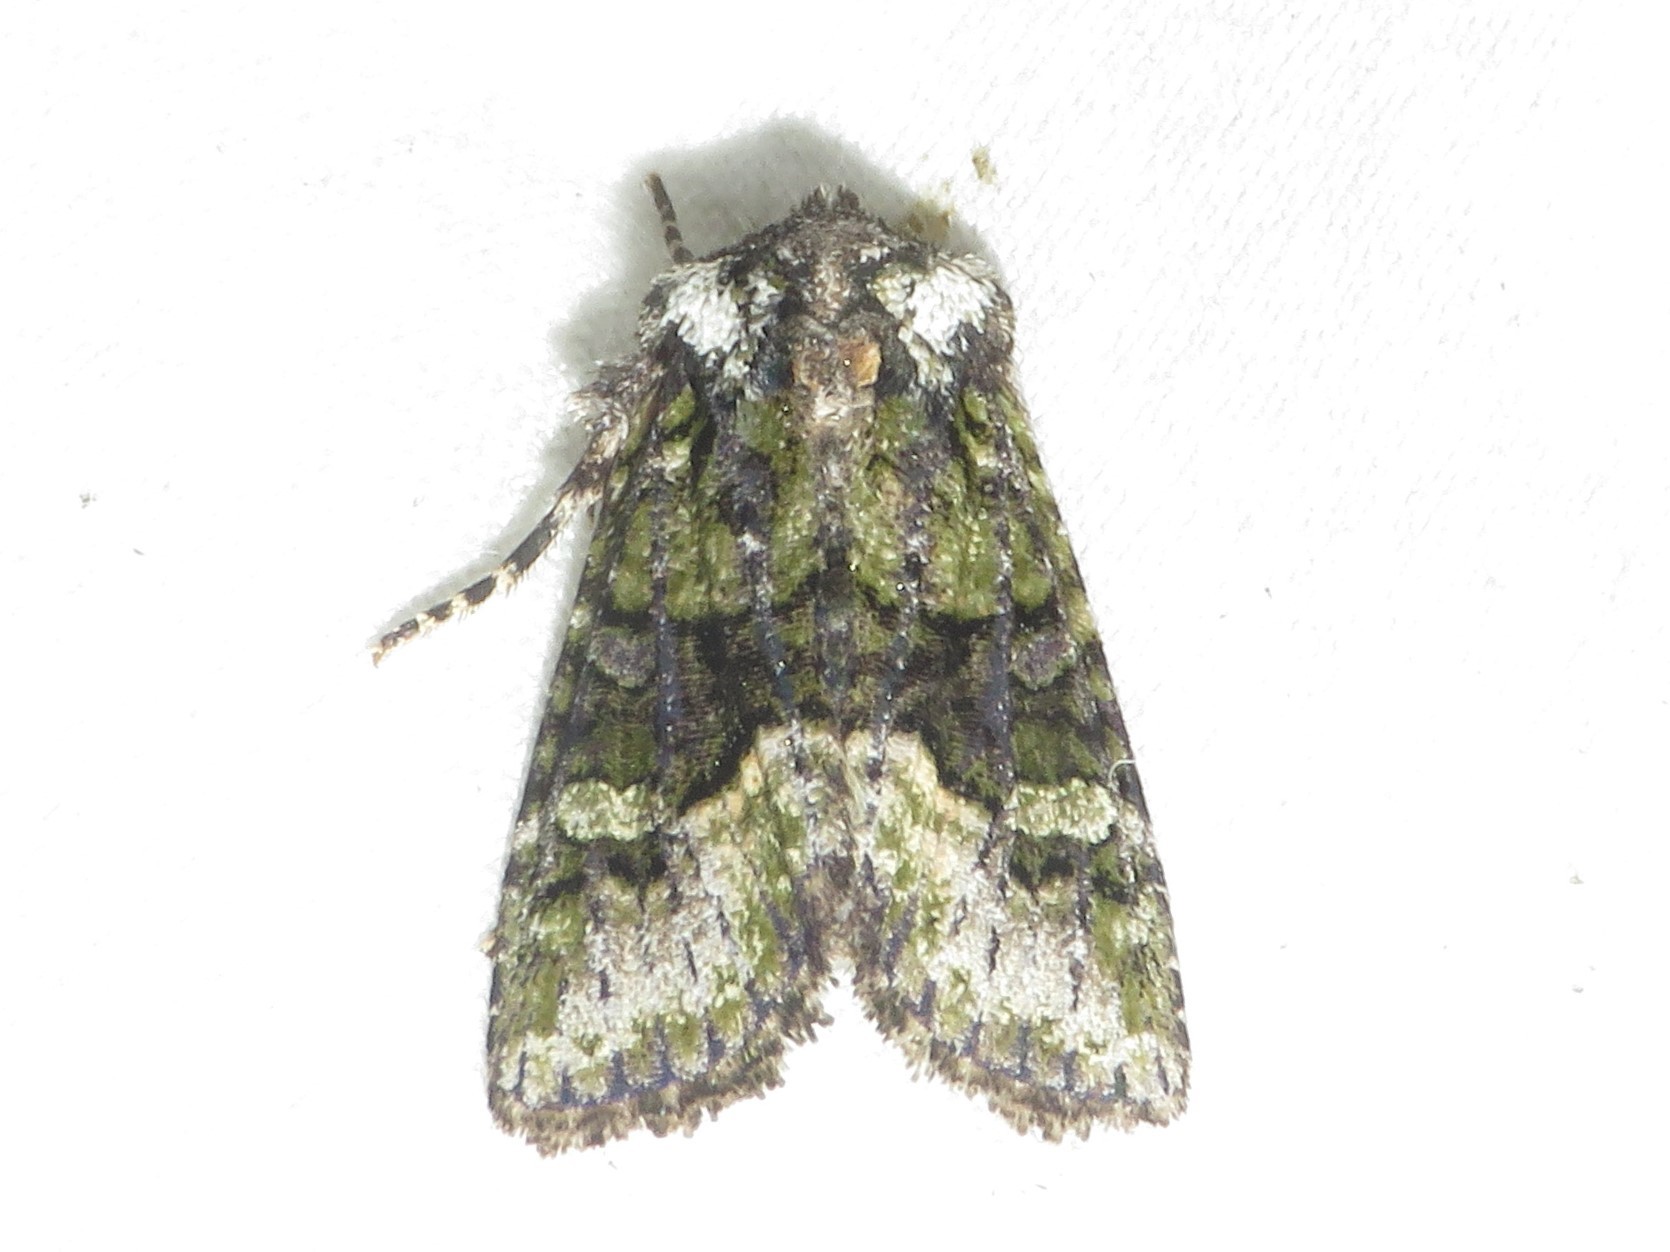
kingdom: Animalia
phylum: Arthropoda
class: Insecta
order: Lepidoptera
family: Noctuidae
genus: Lacinipolia
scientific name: Lacinipolia olivacea
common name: Olive arches moth
